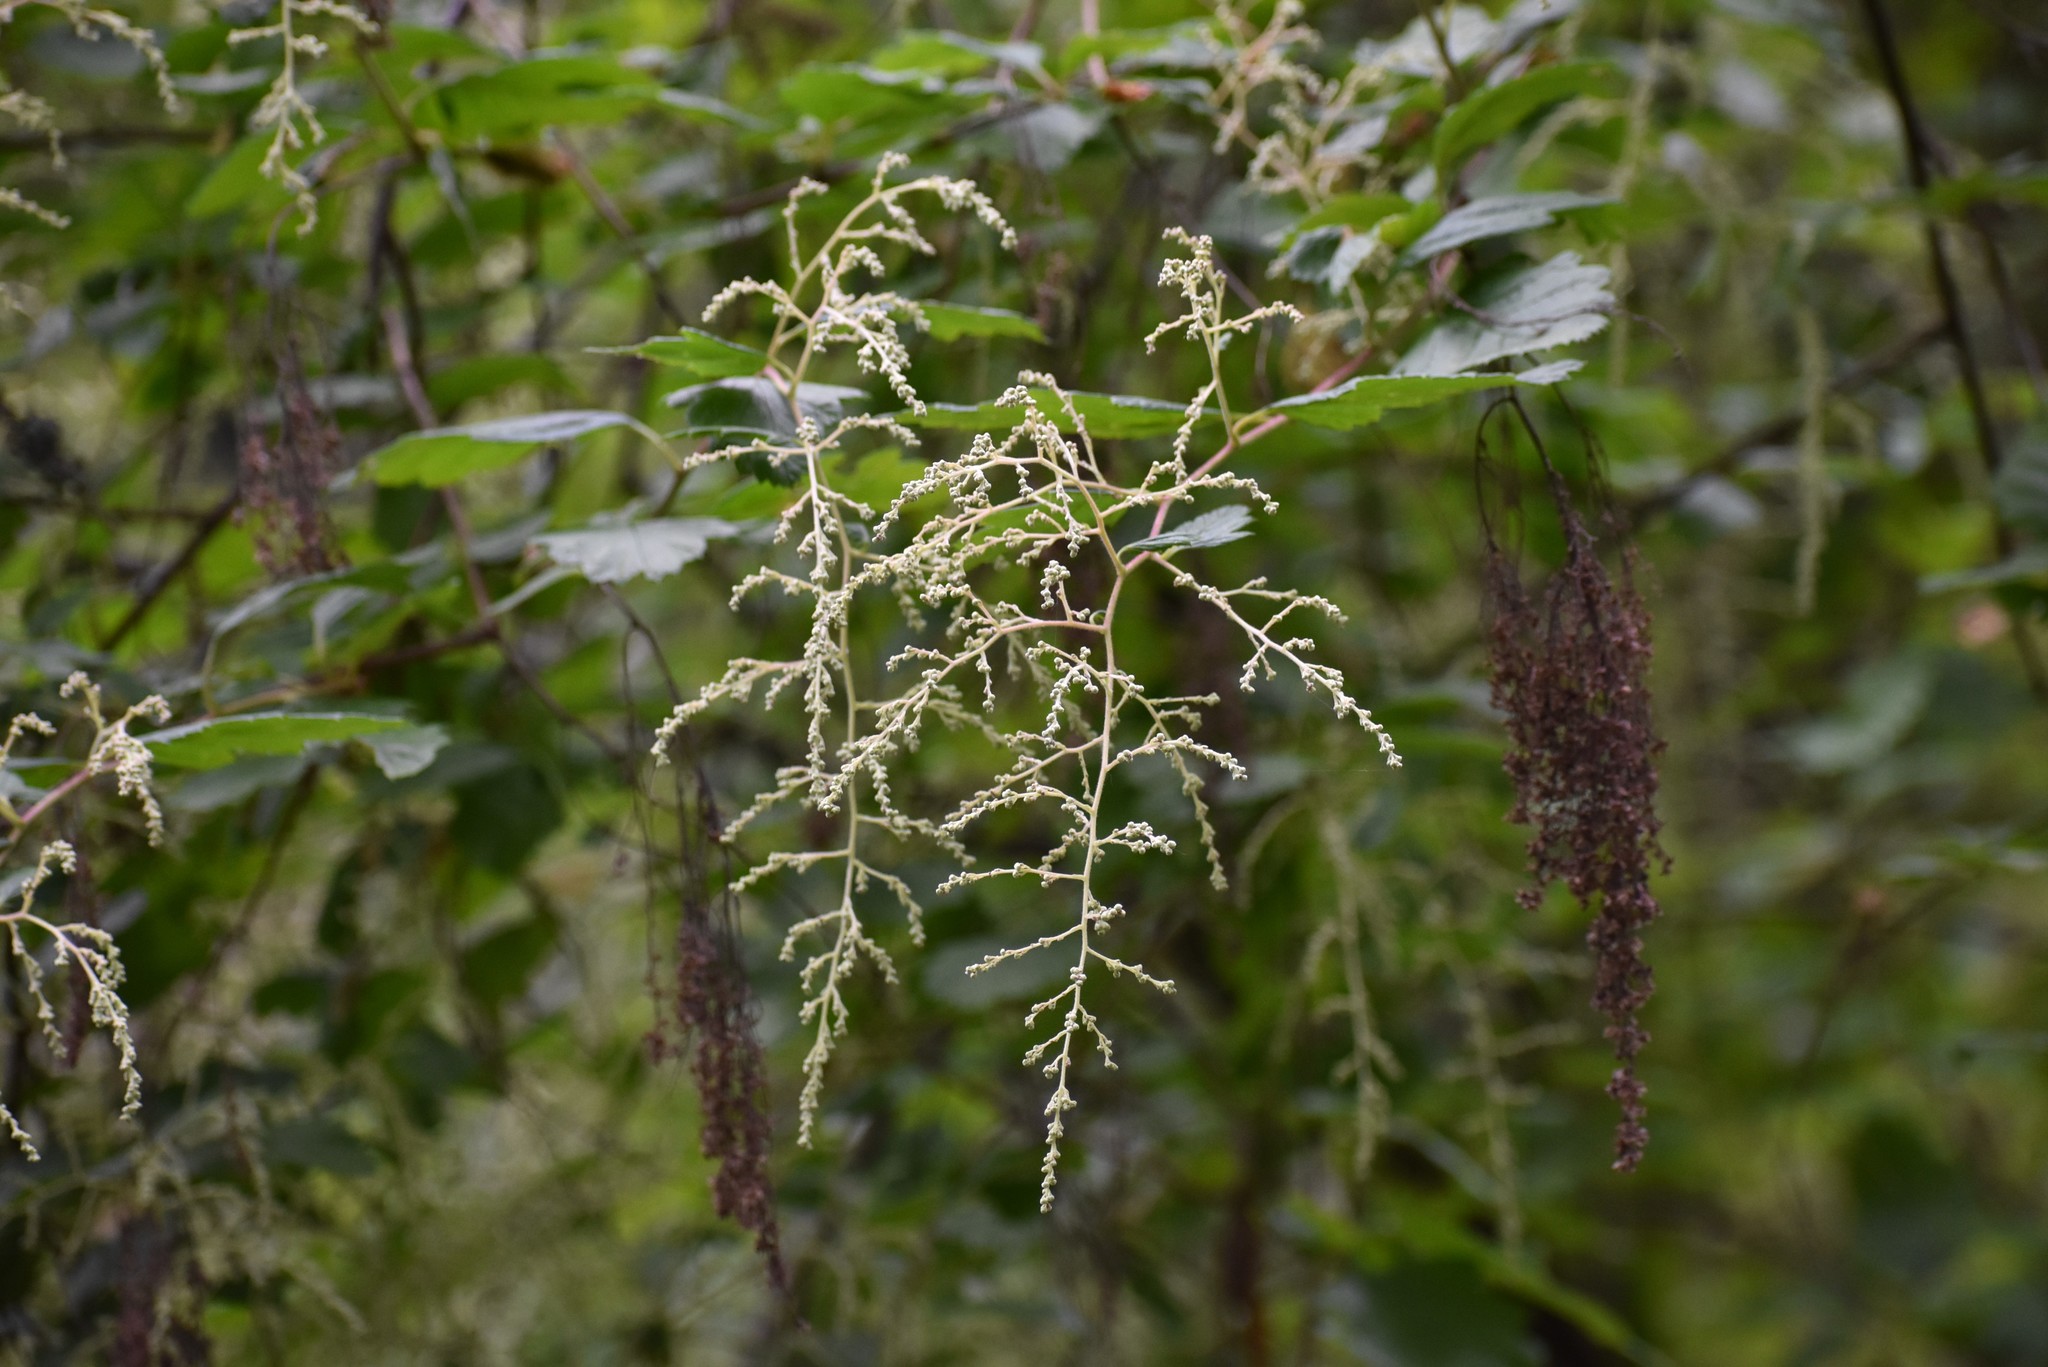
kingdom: Plantae
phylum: Tracheophyta
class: Magnoliopsida
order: Rosales
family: Rosaceae
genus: Holodiscus
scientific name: Holodiscus discolor
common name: Oceanspray
